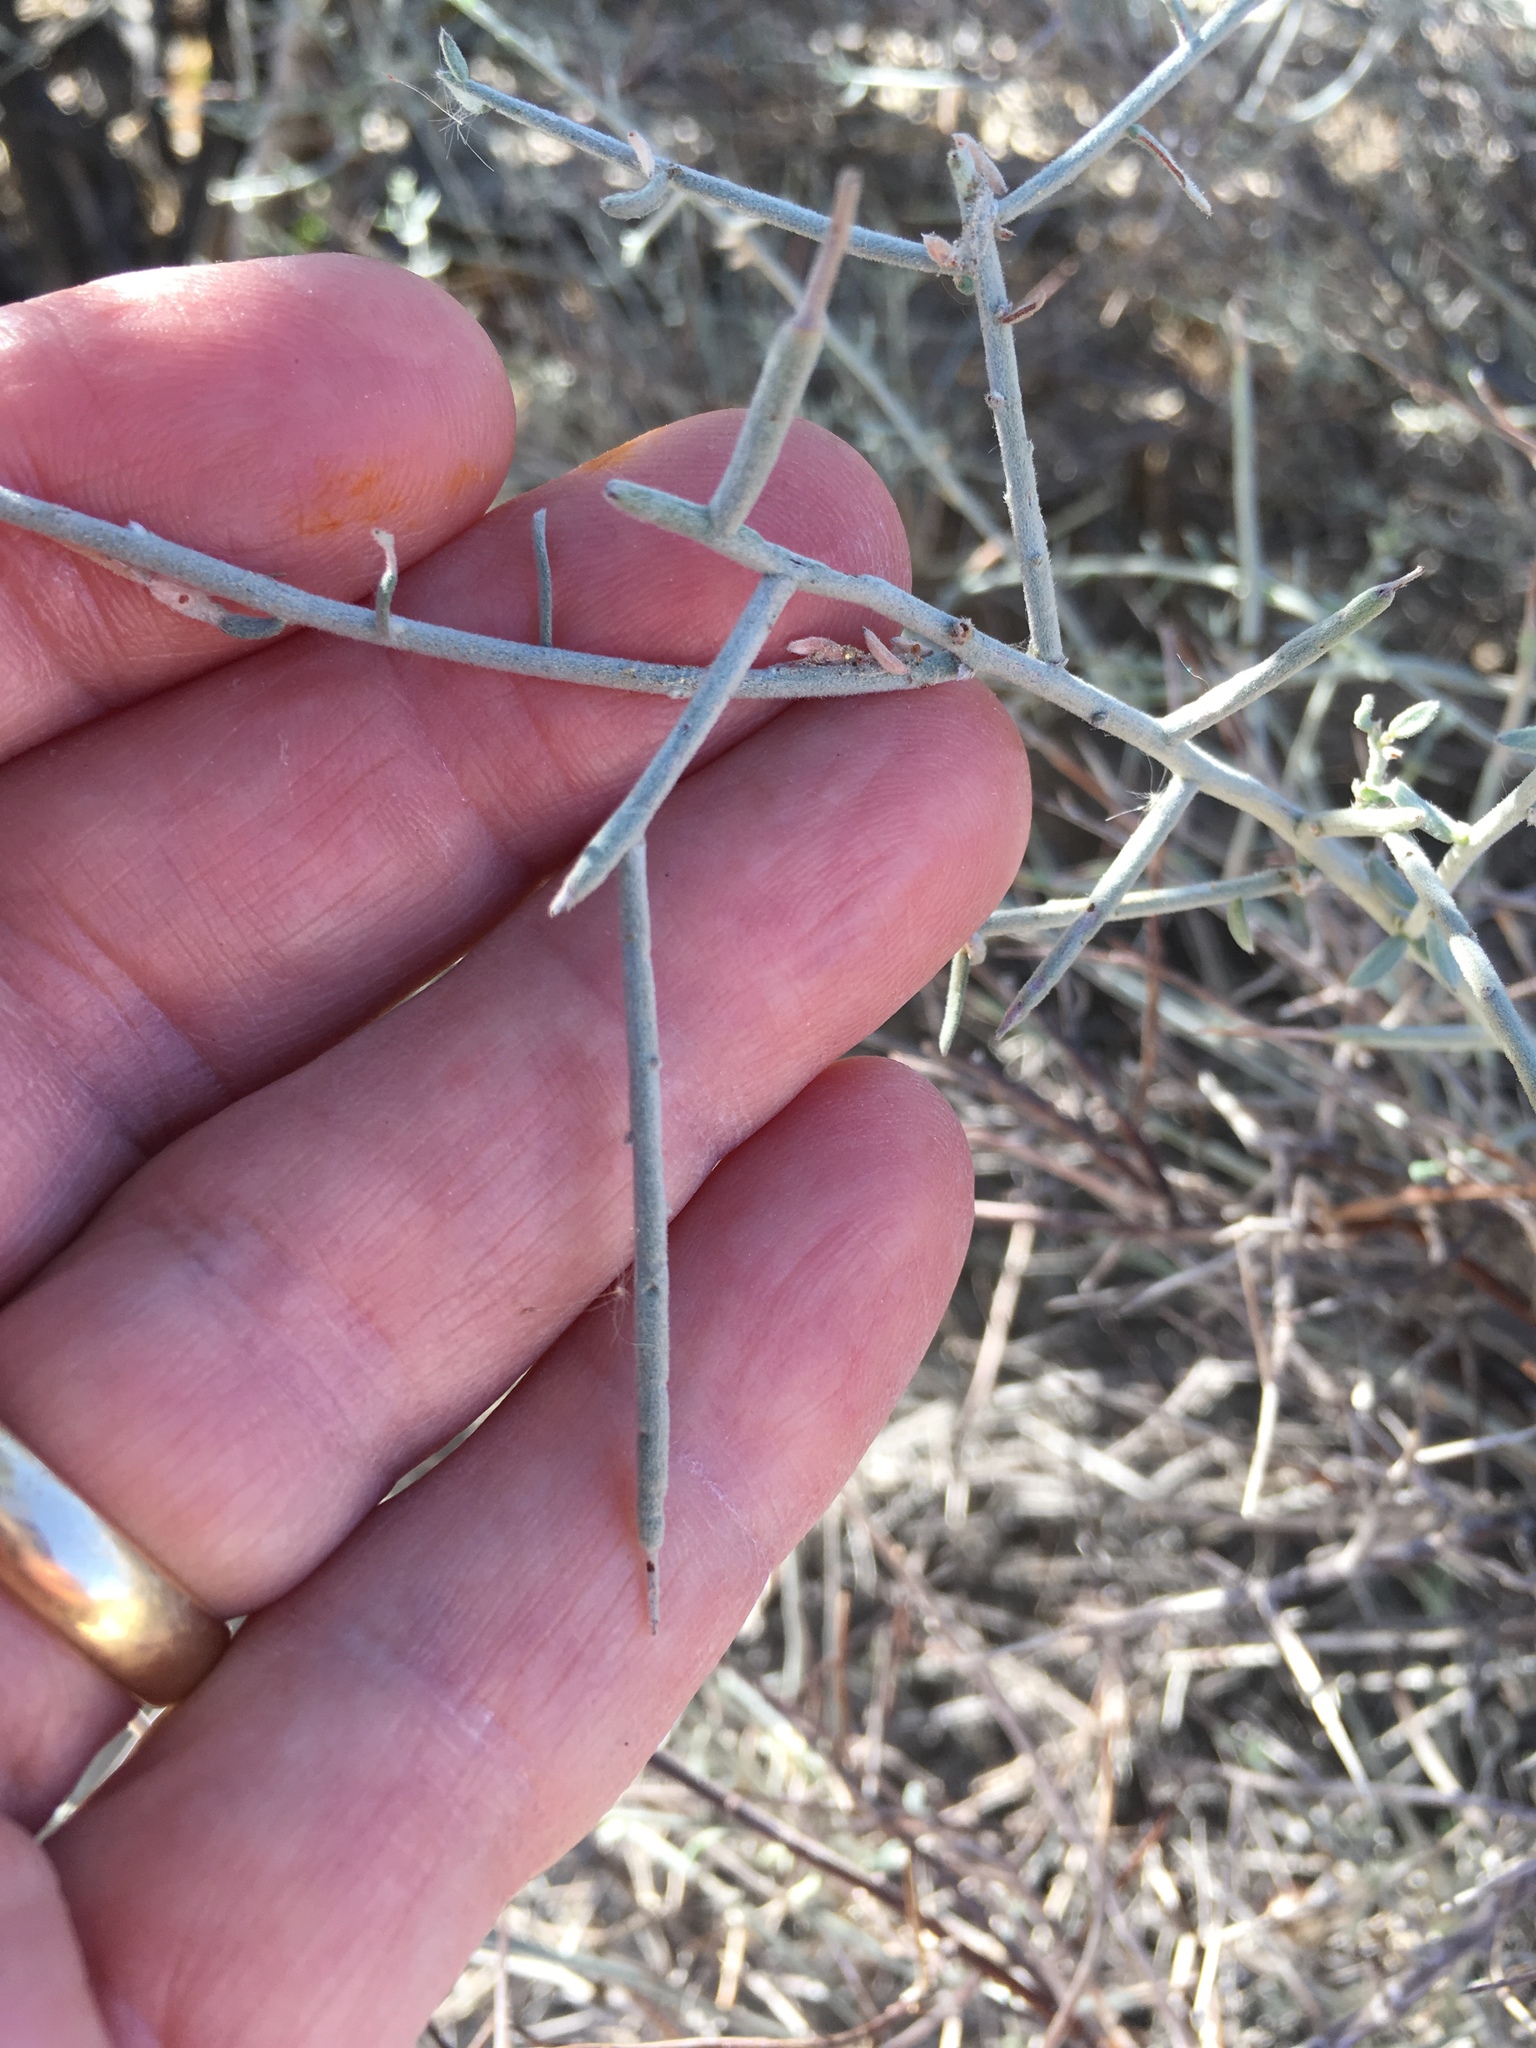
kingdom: Plantae
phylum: Tracheophyta
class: Magnoliopsida
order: Zygophyllales
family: Krameriaceae
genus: Krameria
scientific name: Krameria bicolor
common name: White ratany
